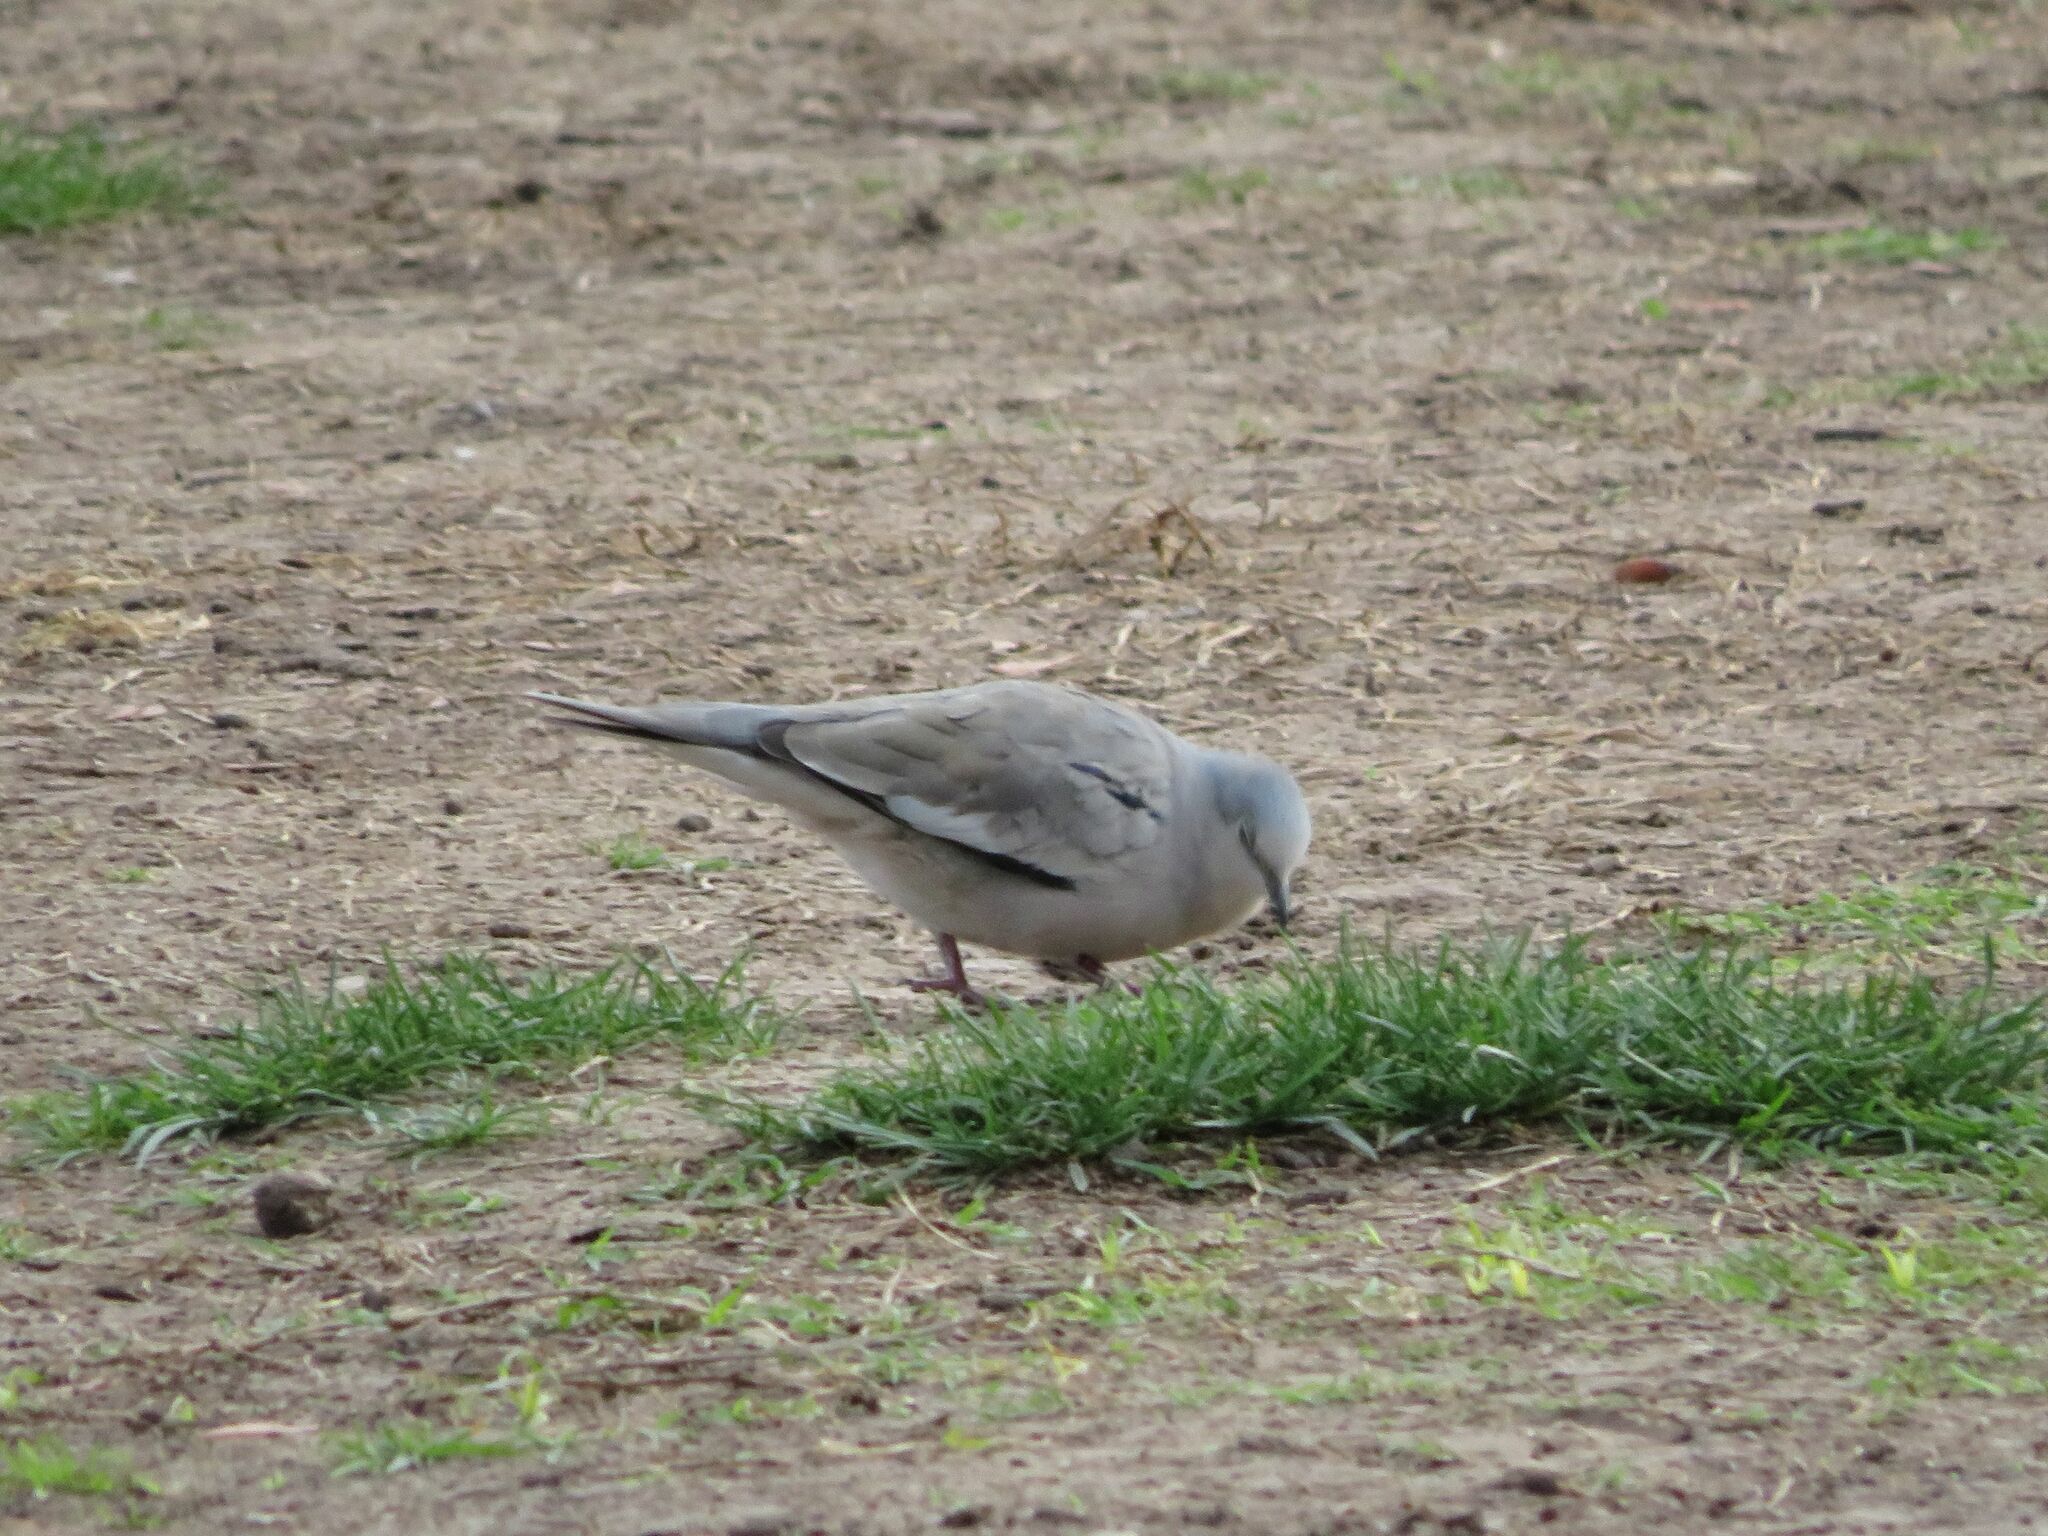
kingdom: Animalia
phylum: Chordata
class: Aves
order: Columbiformes
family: Columbidae
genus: Columbina
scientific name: Columbina picui
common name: Picui ground dove
